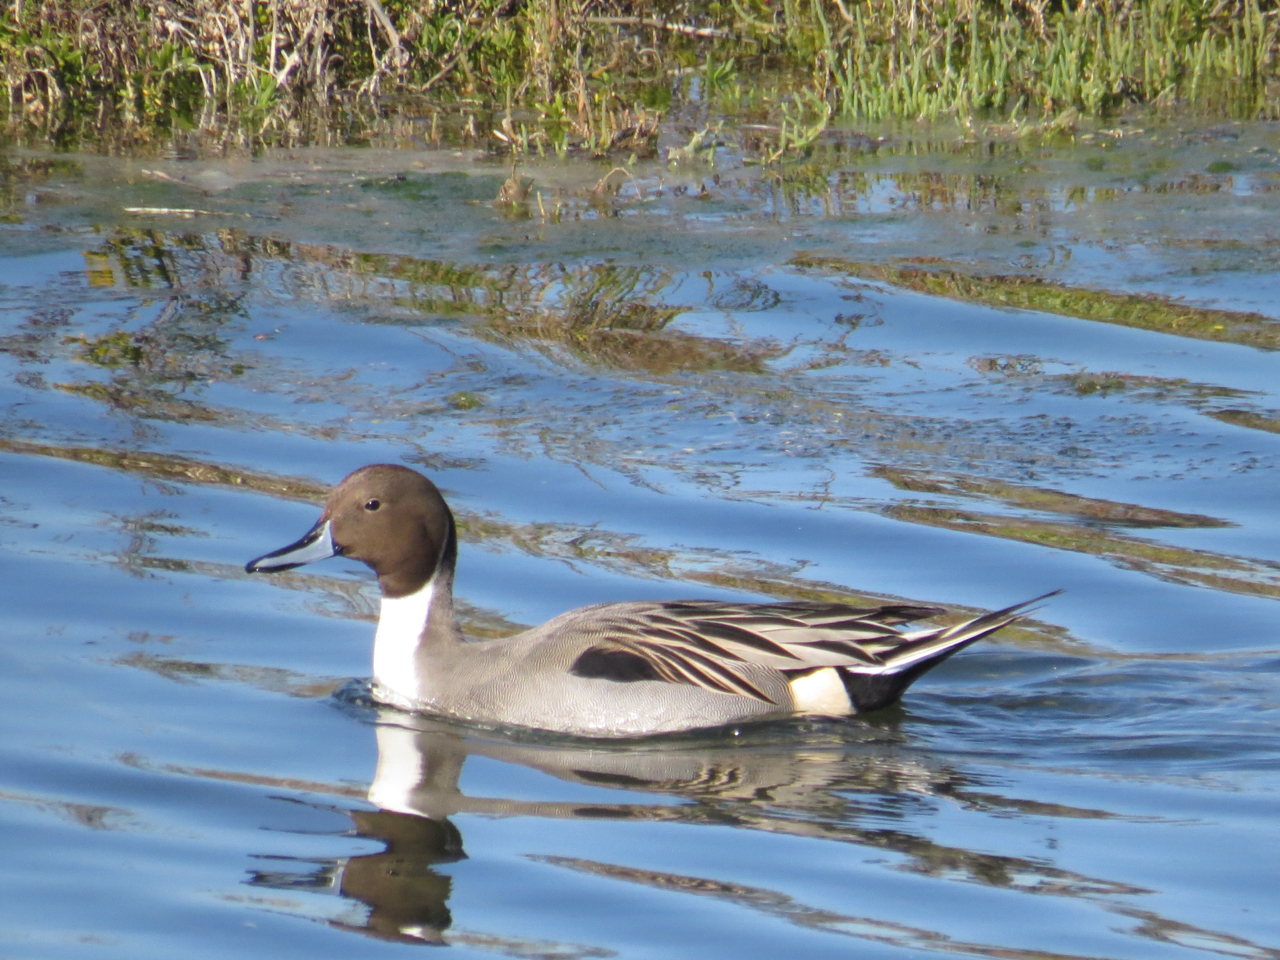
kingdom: Animalia
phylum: Chordata
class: Aves
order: Anseriformes
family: Anatidae
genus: Anas
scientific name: Anas acuta
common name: Northern pintail
